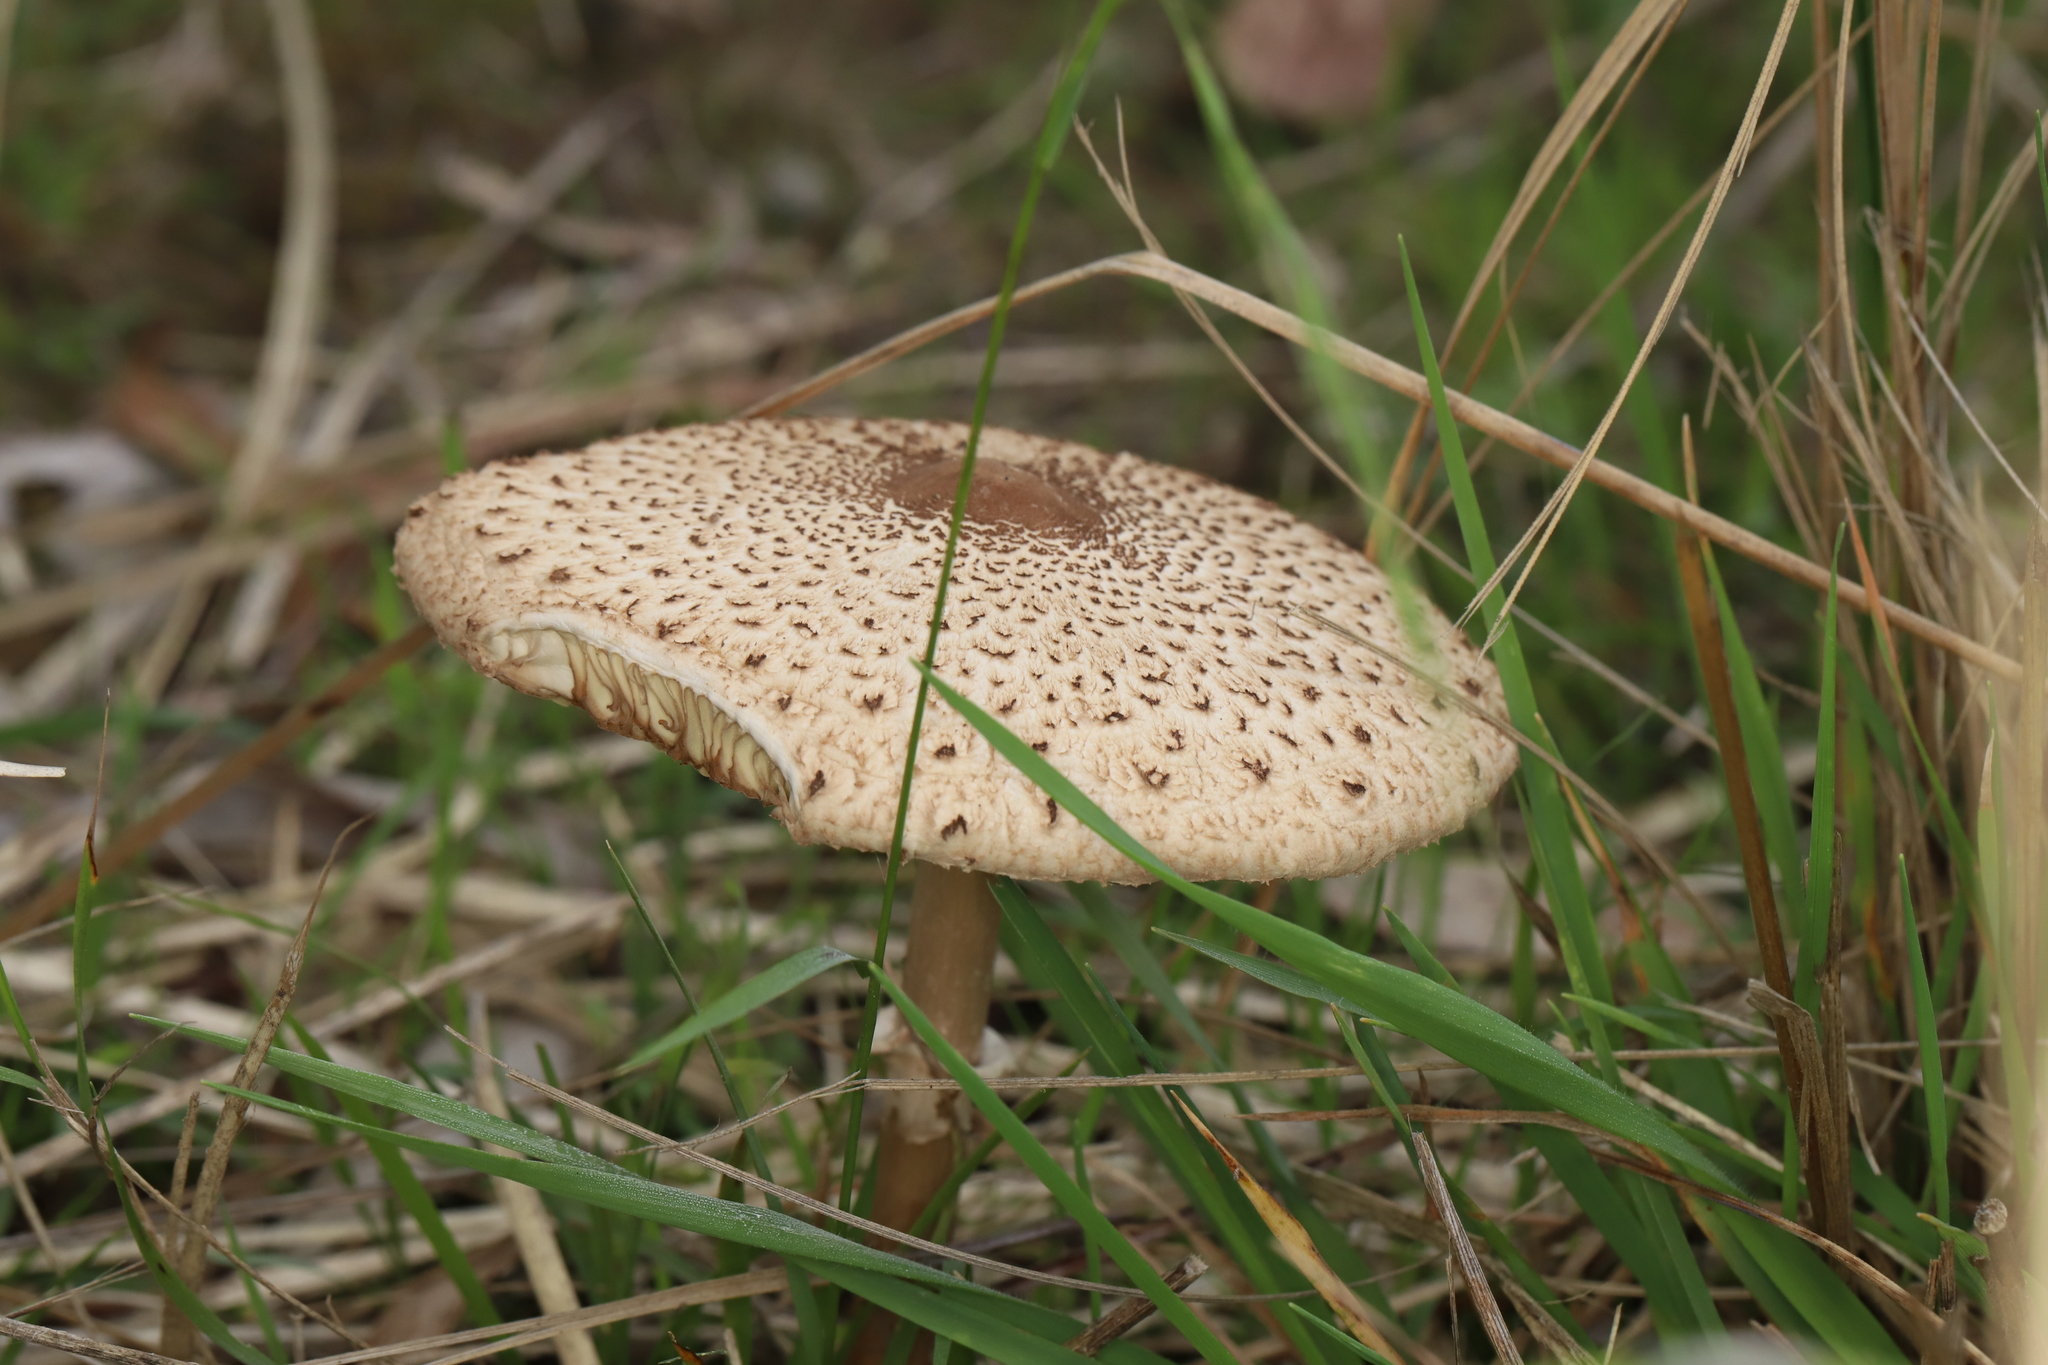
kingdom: Fungi
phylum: Basidiomycota
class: Agaricomycetes
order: Agaricales
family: Agaricaceae
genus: Macrolepiota
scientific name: Macrolepiota clelandii
